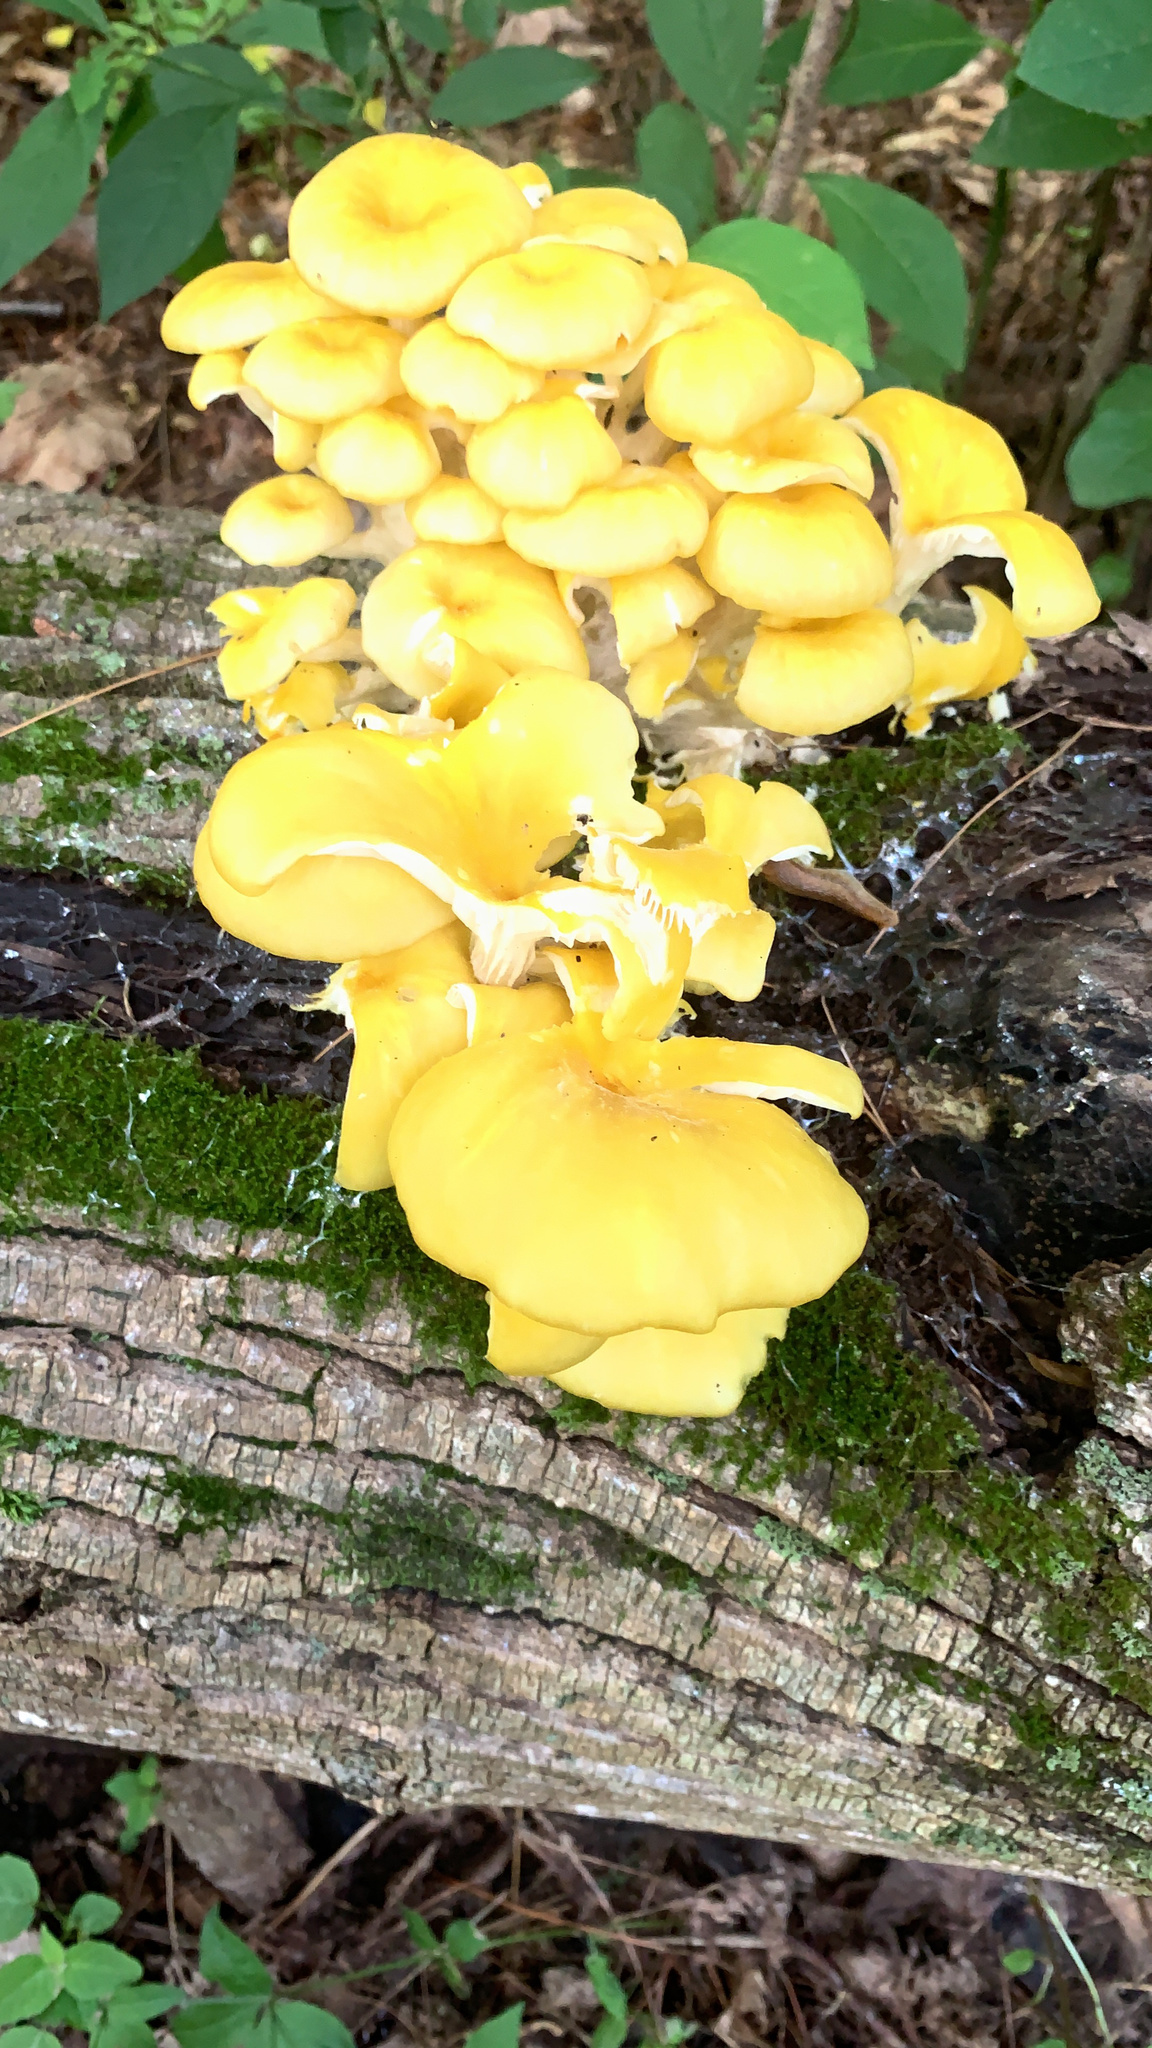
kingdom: Fungi
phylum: Basidiomycota
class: Agaricomycetes
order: Agaricales
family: Pleurotaceae
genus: Pleurotus
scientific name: Pleurotus citrinopileatus
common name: Golden oyster mushroom
